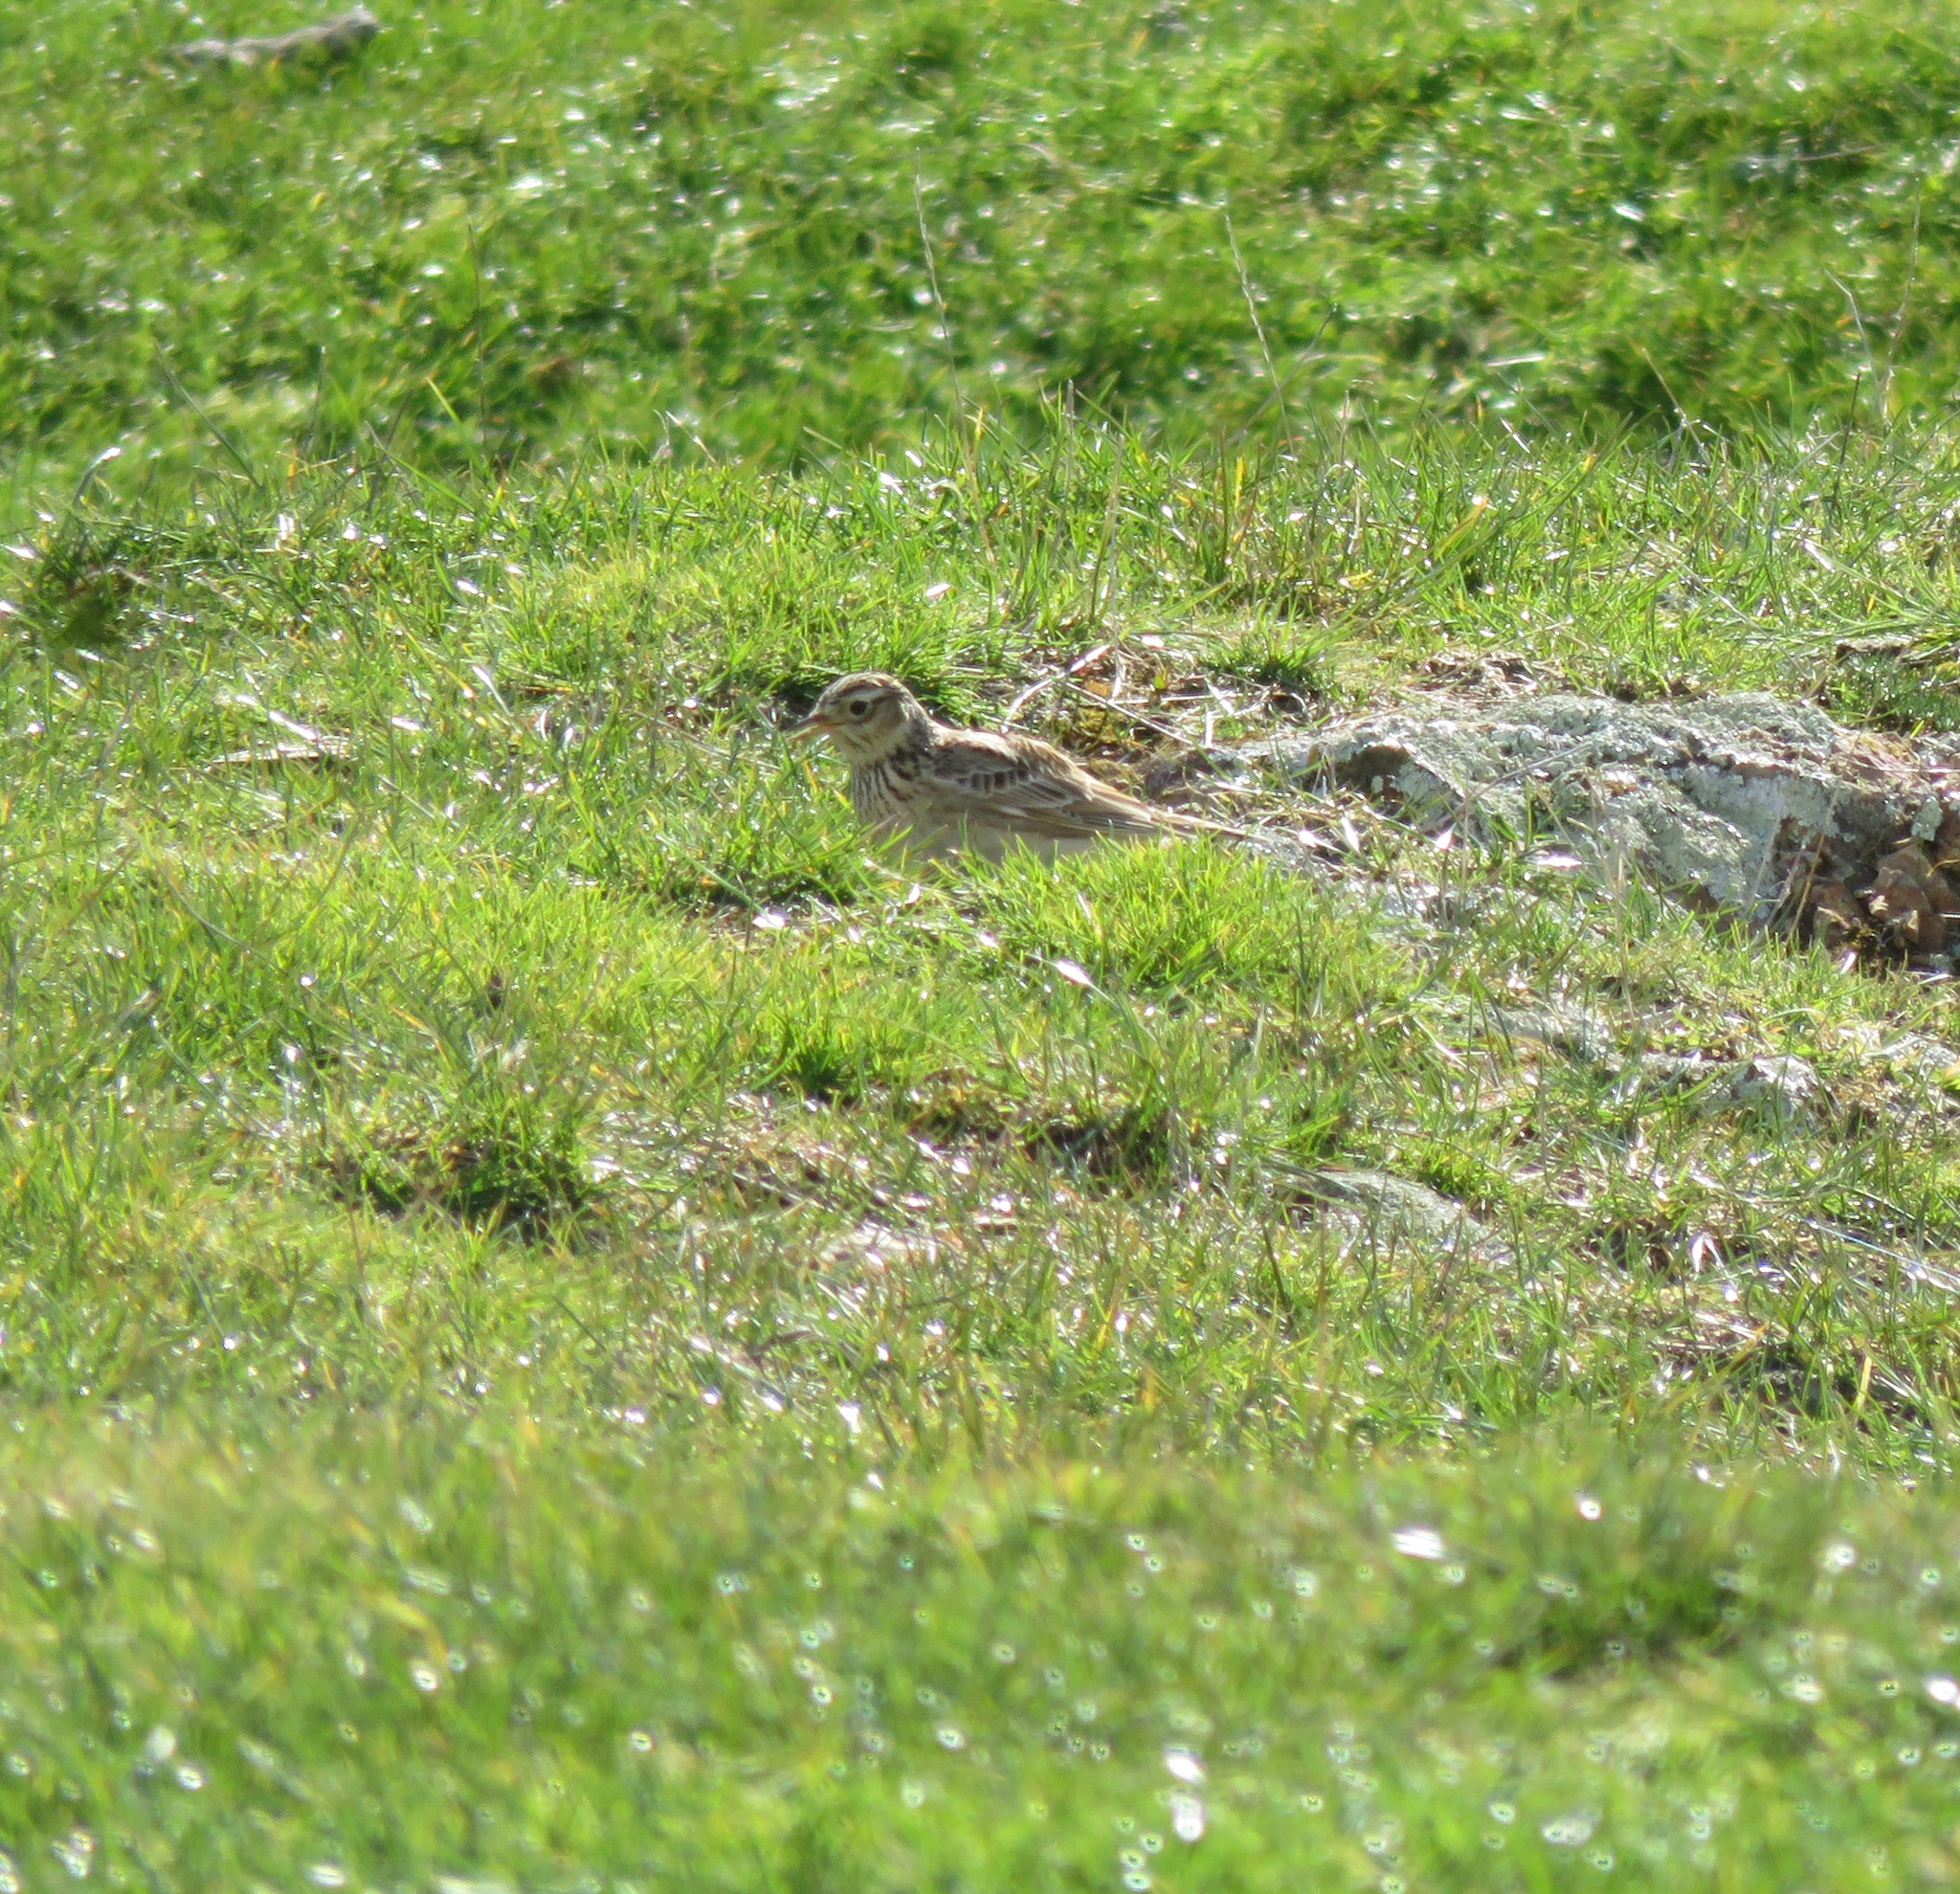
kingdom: Animalia
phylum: Chordata
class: Aves
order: Passeriformes
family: Alaudidae
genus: Alauda
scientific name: Alauda arvensis
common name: Eurasian skylark
